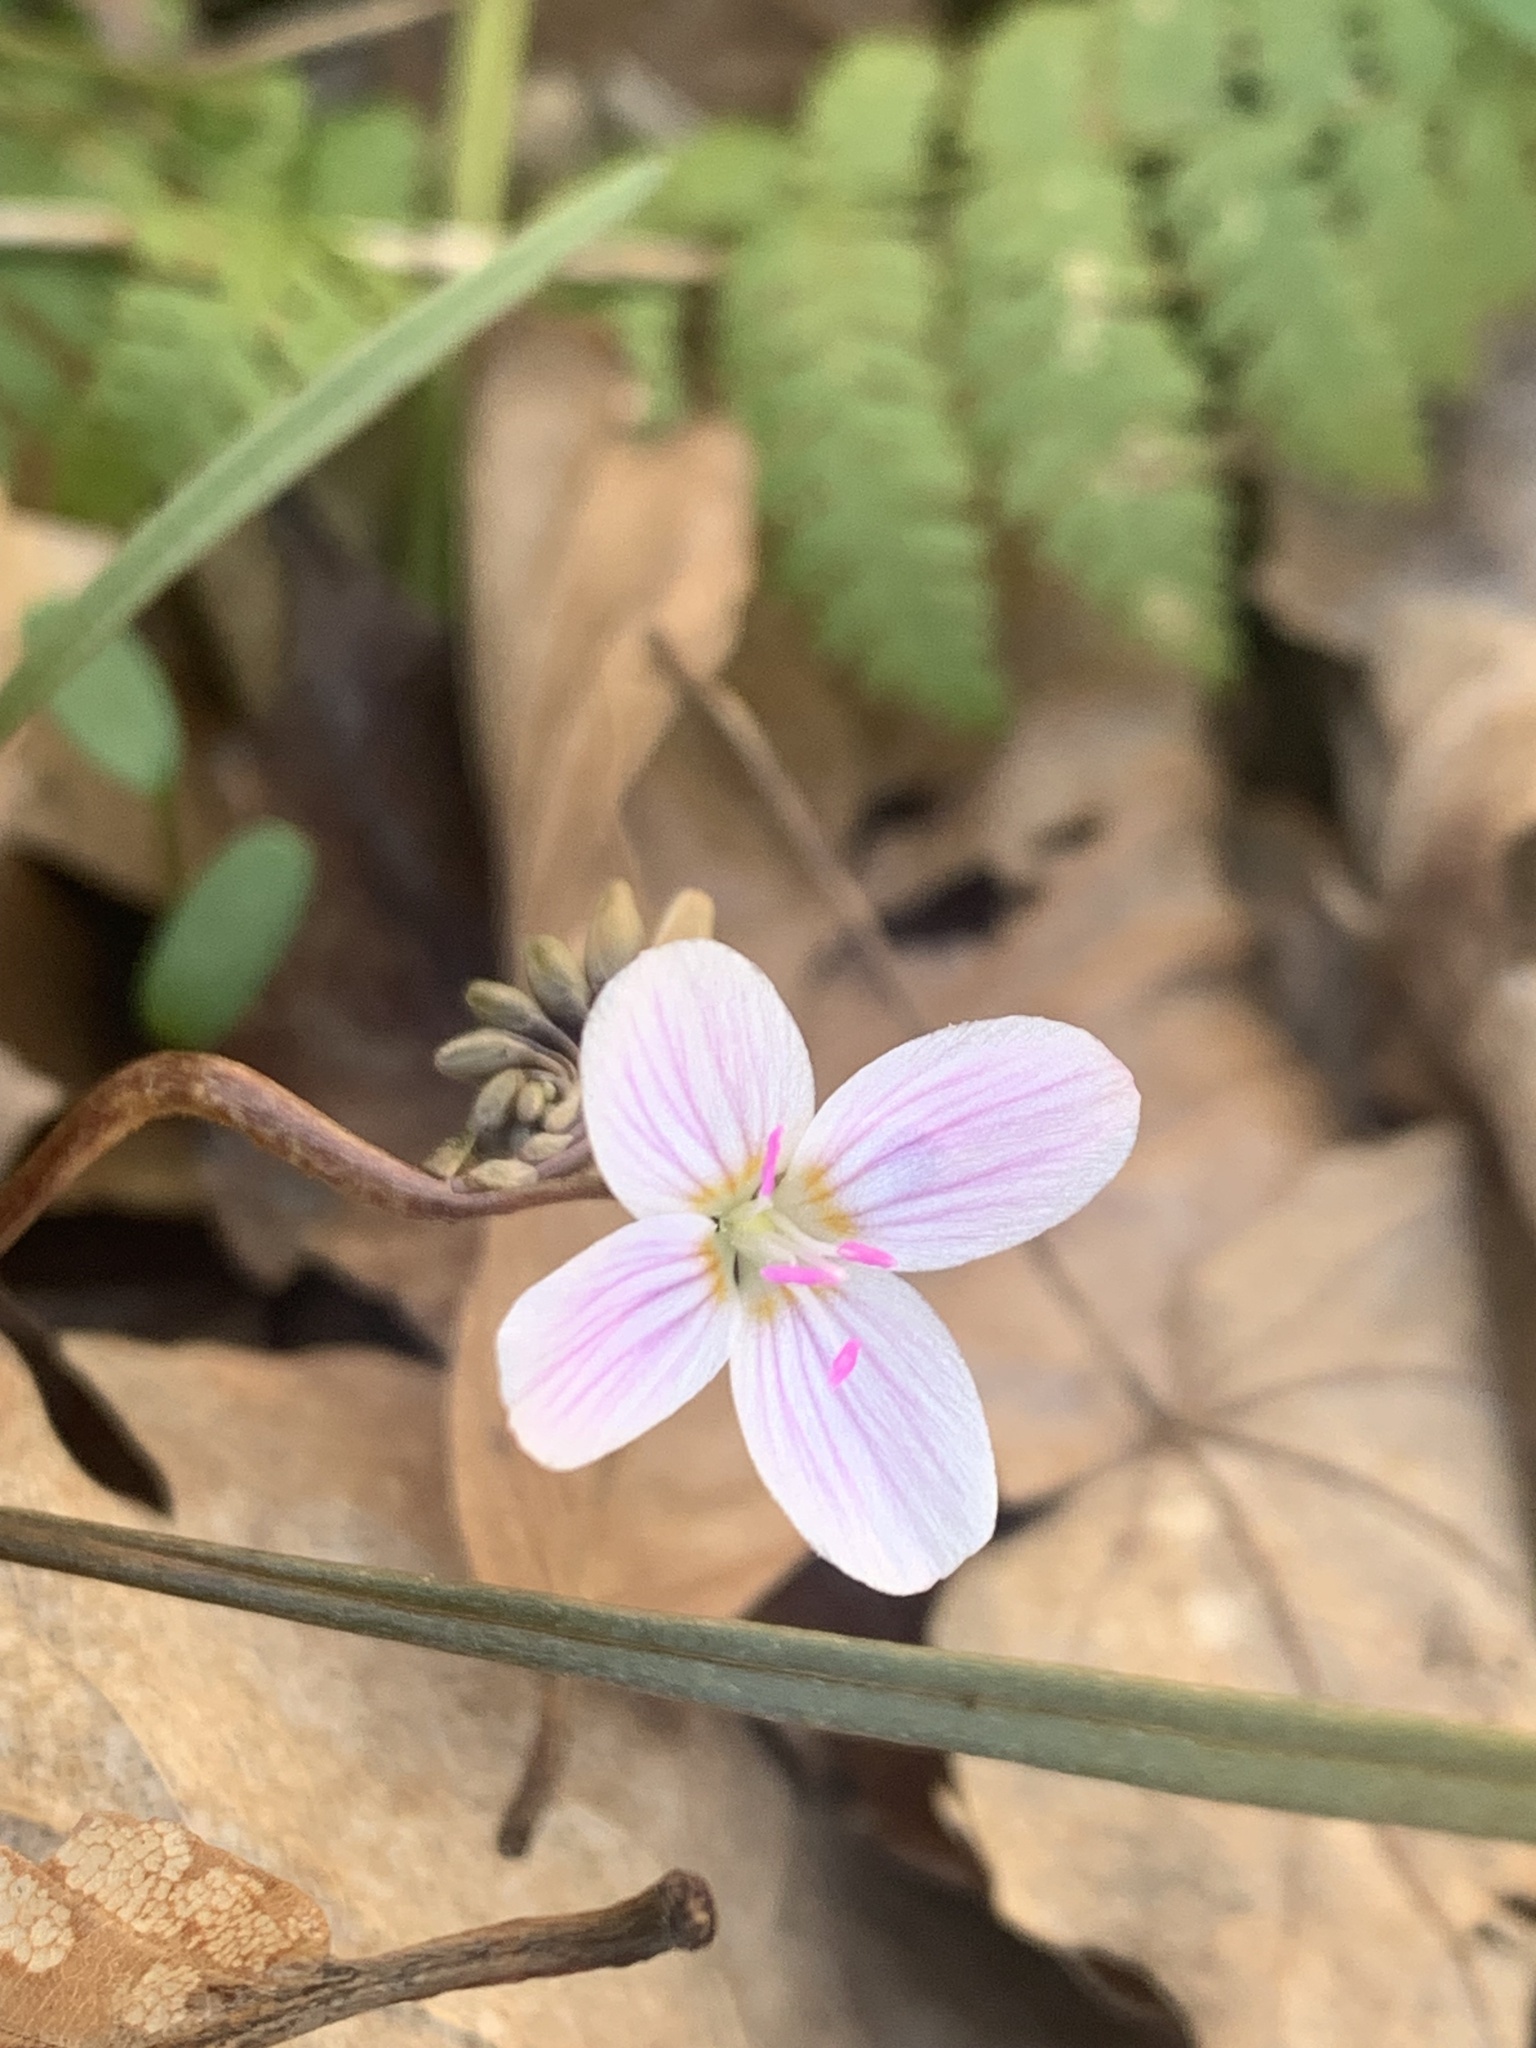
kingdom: Plantae
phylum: Tracheophyta
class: Magnoliopsida
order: Caryophyllales
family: Montiaceae
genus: Claytonia
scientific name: Claytonia virginica
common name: Virginia springbeauty
